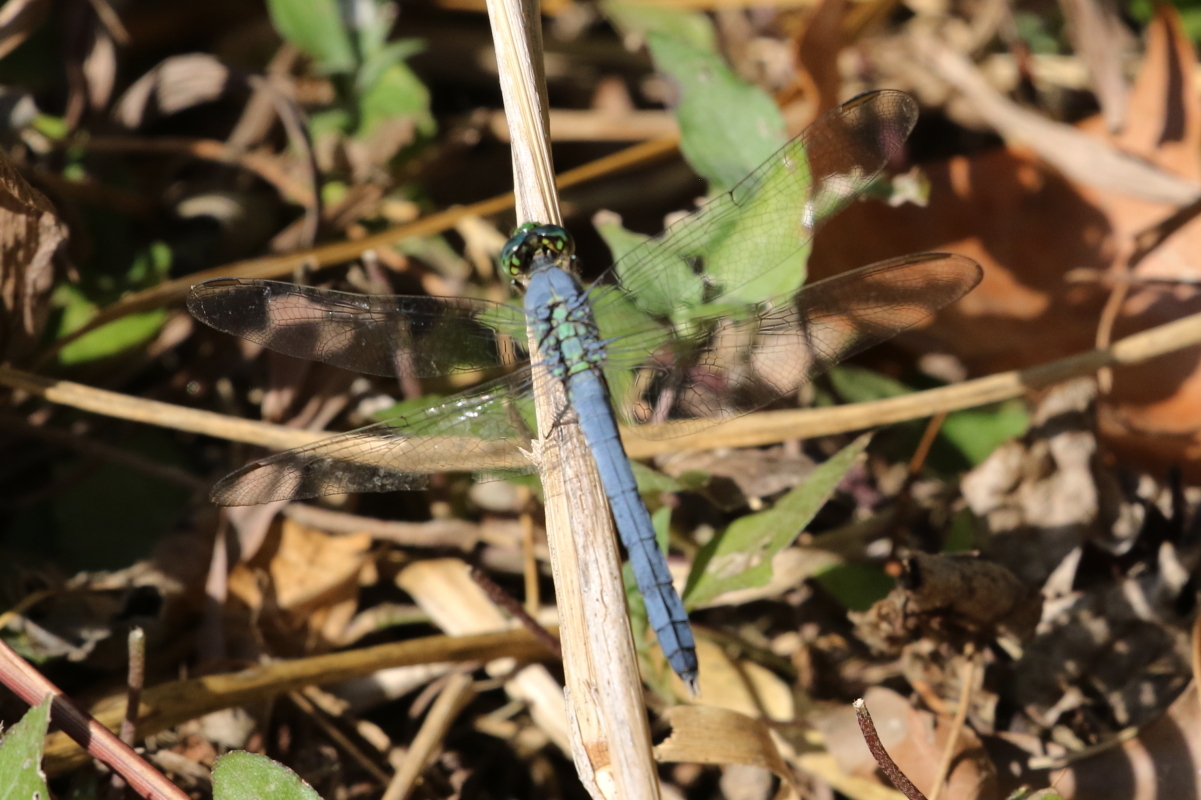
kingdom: Animalia
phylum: Arthropoda
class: Insecta
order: Odonata
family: Libellulidae
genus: Erythemis
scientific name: Erythemis simplicicollis
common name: Eastern pondhawk
